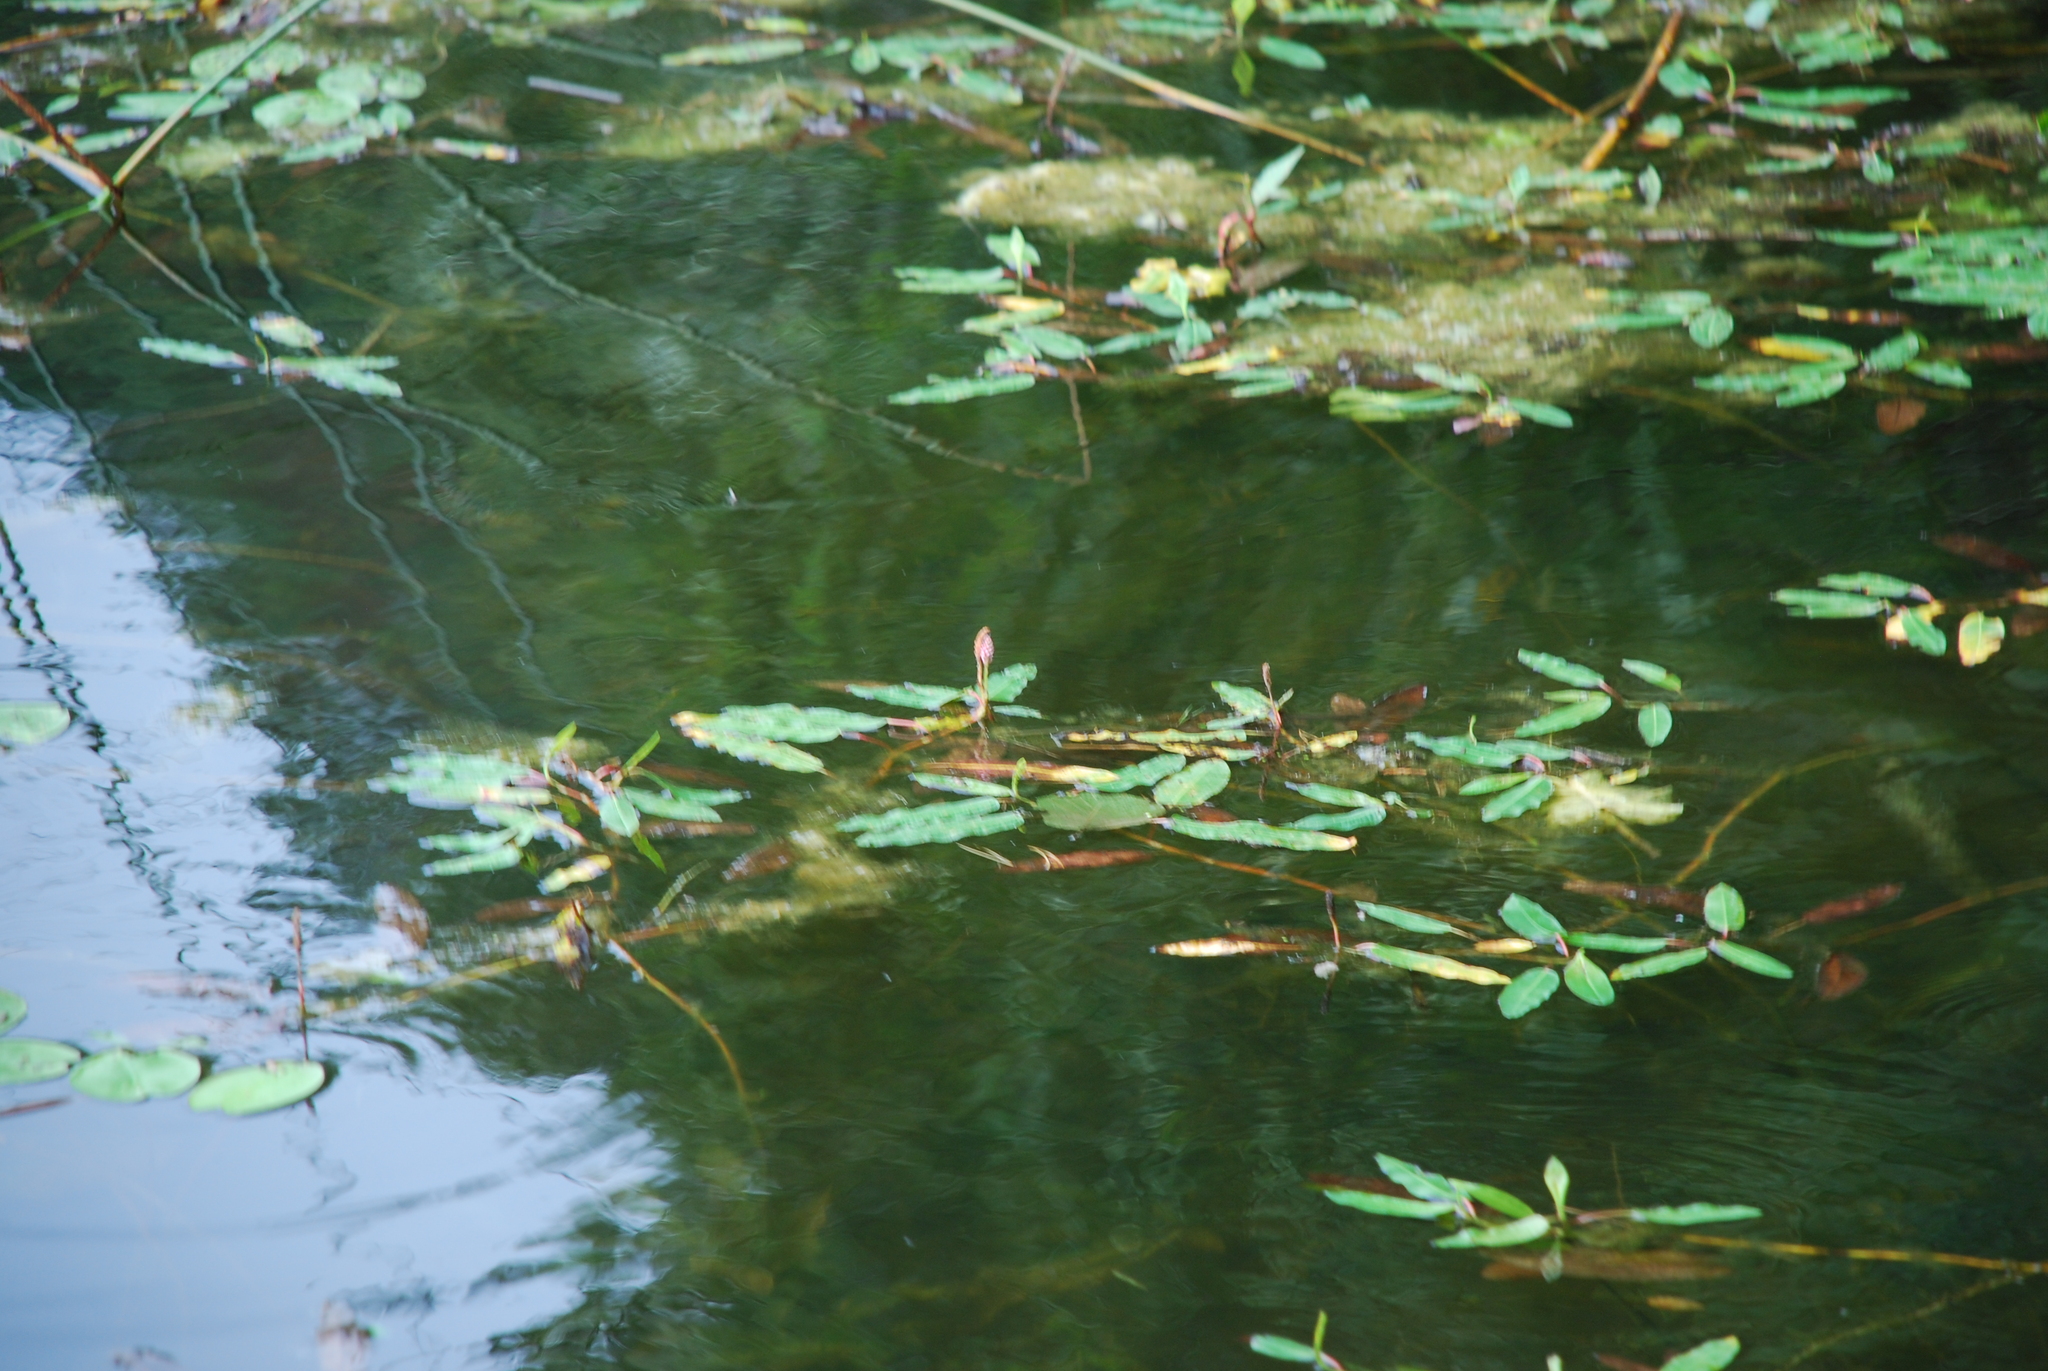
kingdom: Plantae
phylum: Tracheophyta
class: Magnoliopsida
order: Caryophyllales
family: Polygonaceae
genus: Persicaria
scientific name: Persicaria amphibia
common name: Amphibious bistort
